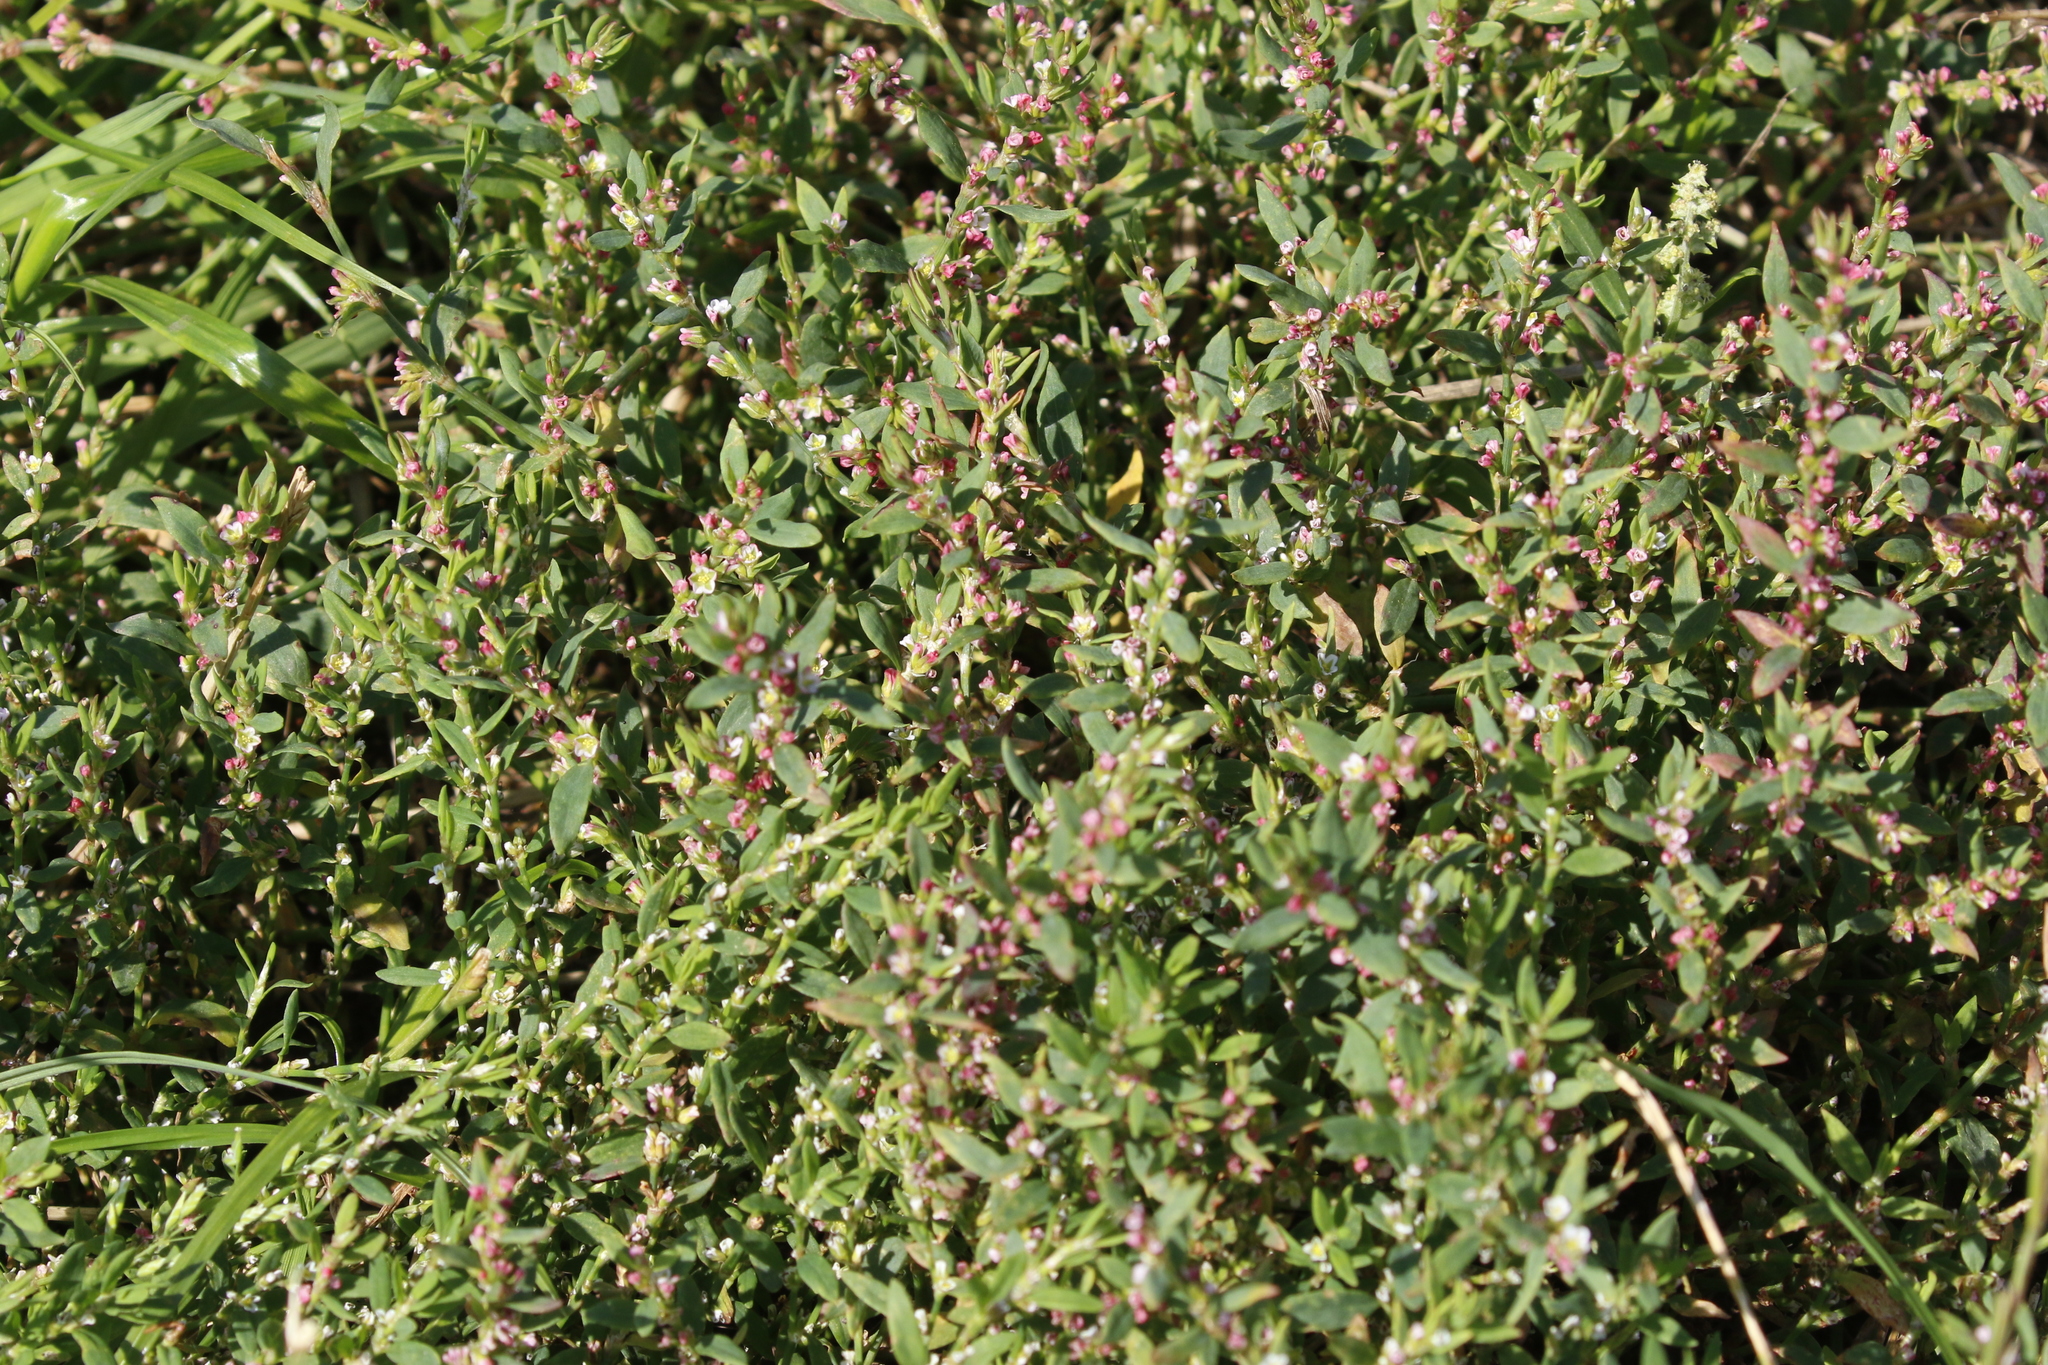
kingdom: Plantae
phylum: Tracheophyta
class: Magnoliopsida
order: Caryophyllales
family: Polygonaceae
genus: Polygonum
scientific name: Polygonum aviculare
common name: Prostrate knotweed
